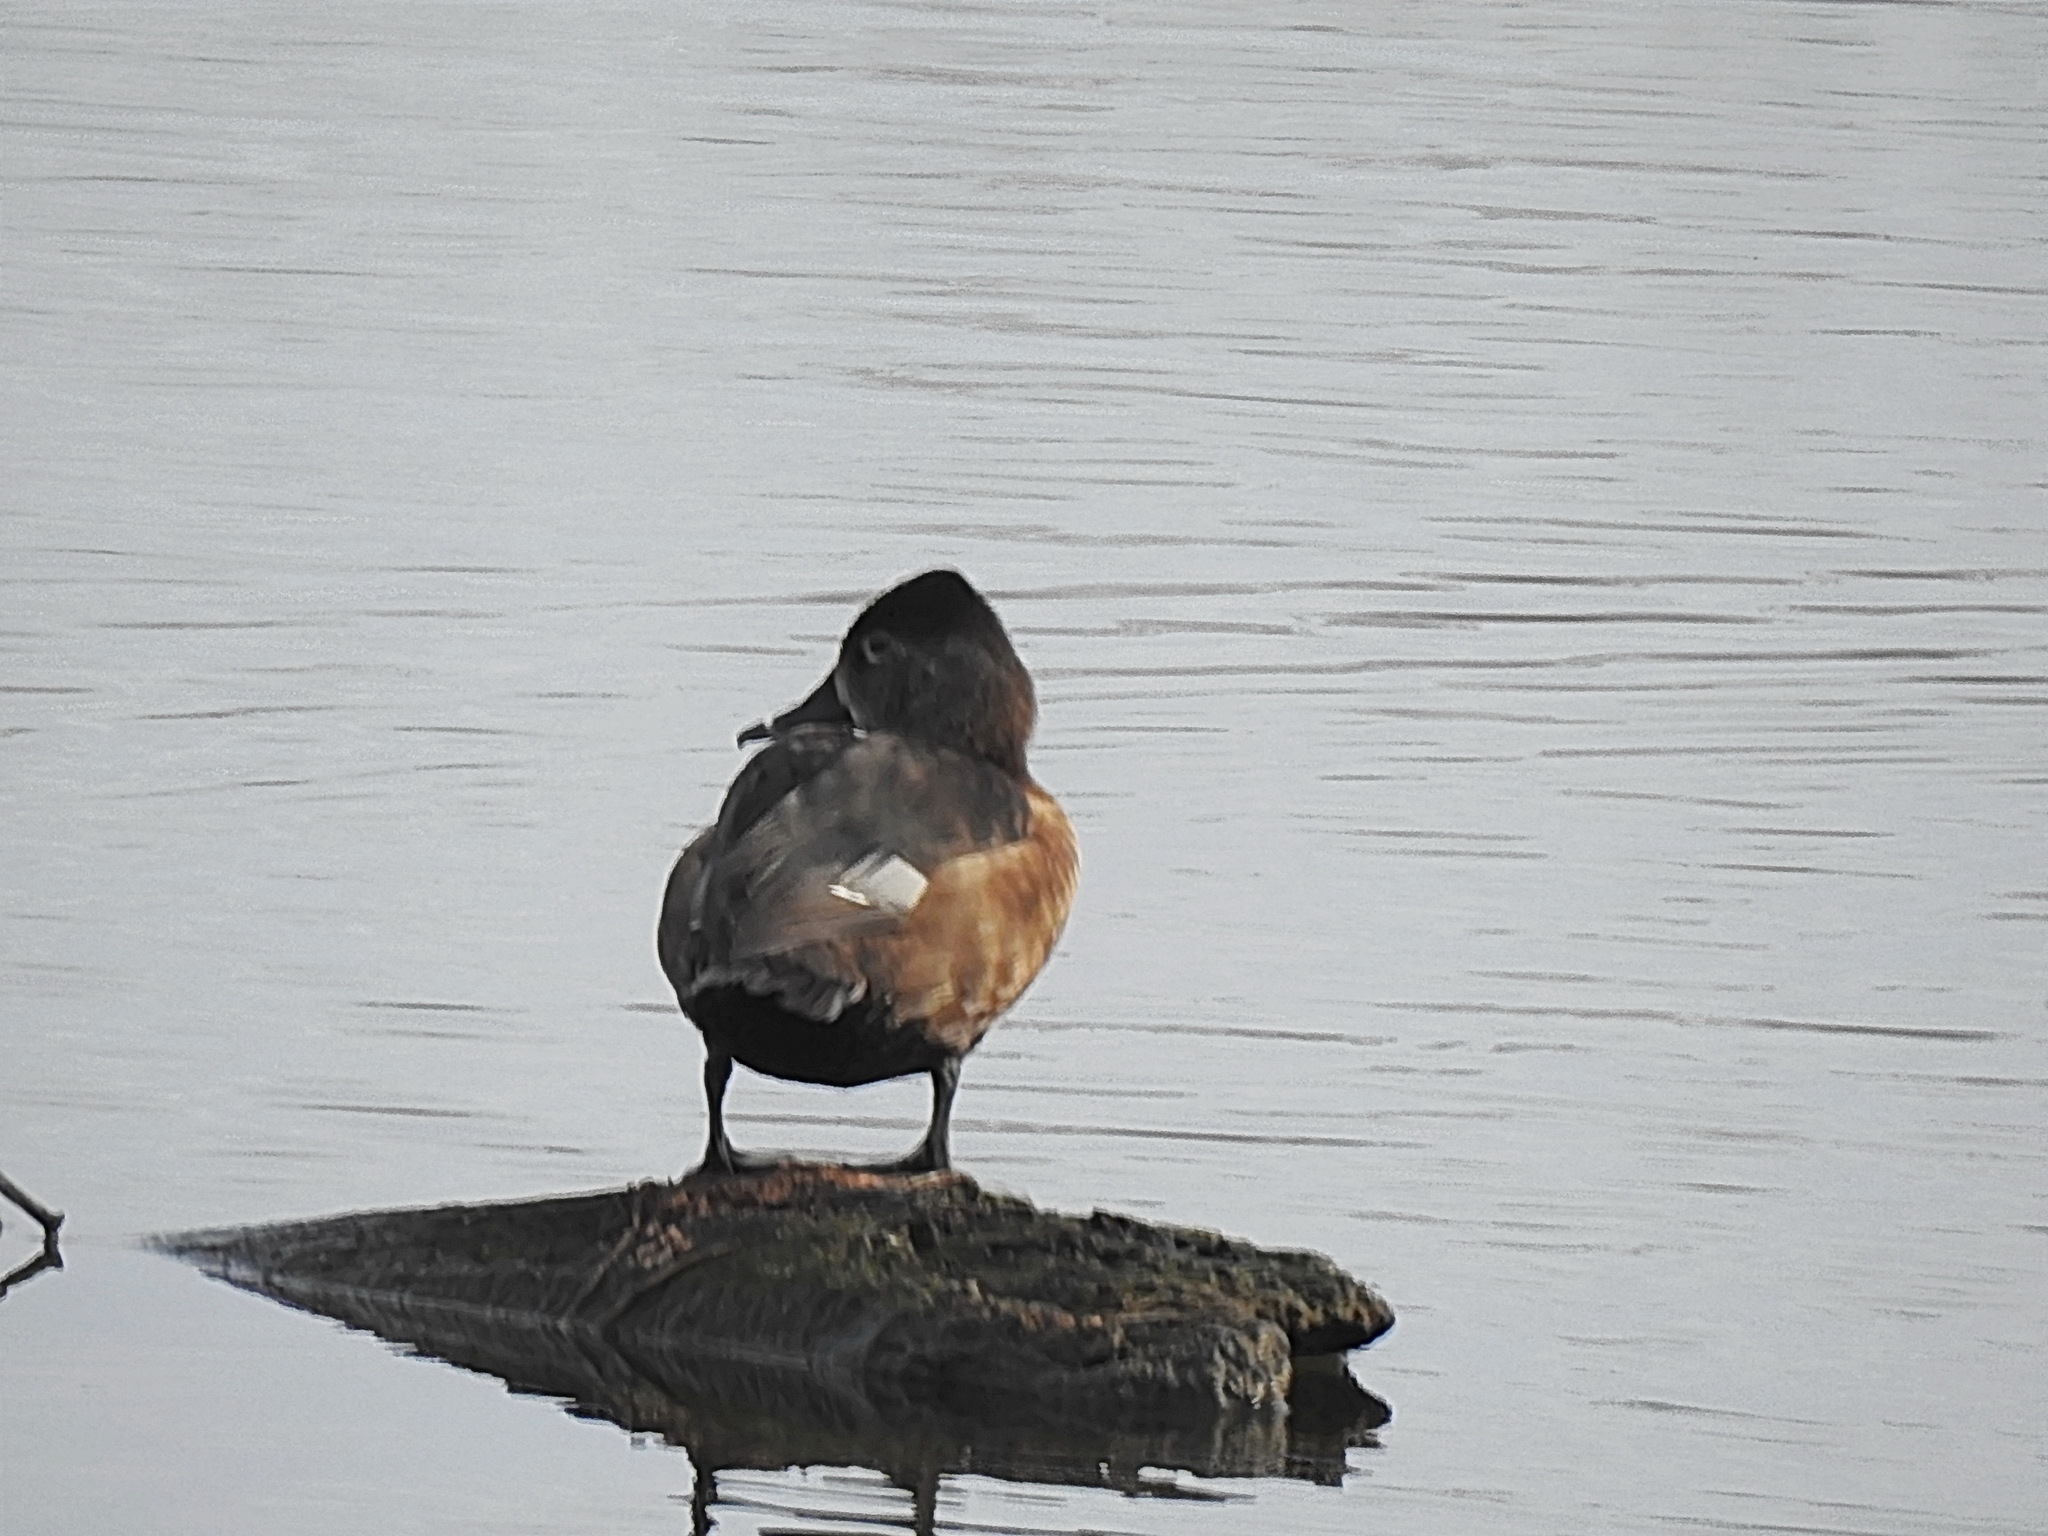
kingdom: Animalia
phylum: Chordata
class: Aves
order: Anseriformes
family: Anatidae
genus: Aythya
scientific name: Aythya collaris
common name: Ring-necked duck
